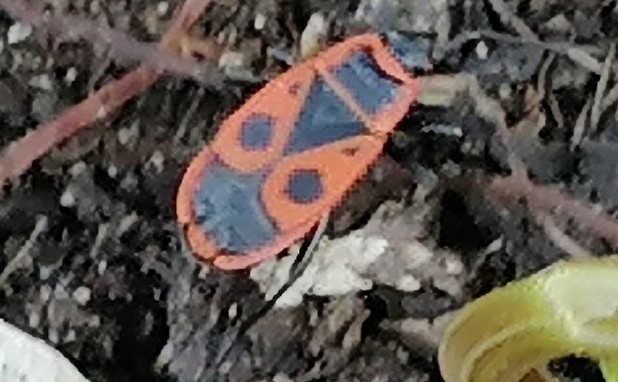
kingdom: Animalia
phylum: Arthropoda
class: Insecta
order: Hemiptera
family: Pyrrhocoridae
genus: Pyrrhocoris
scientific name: Pyrrhocoris apterus
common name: Firebug
